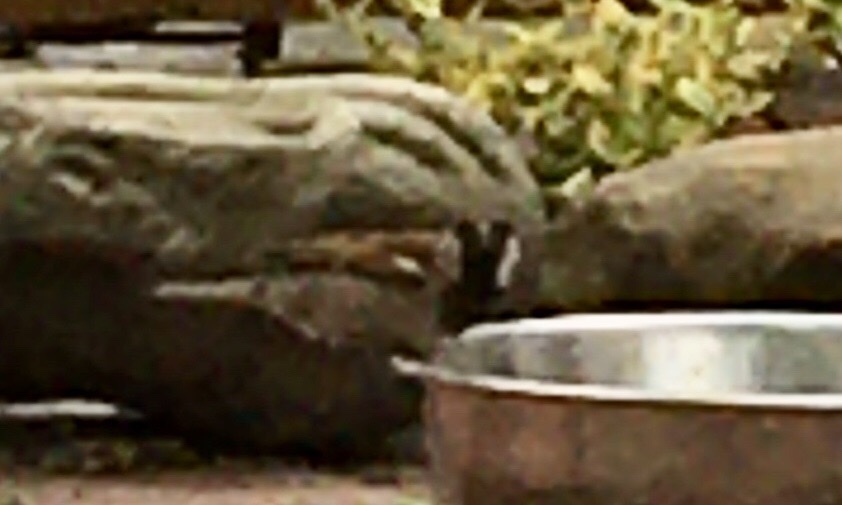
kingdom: Animalia
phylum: Chordata
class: Aves
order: Passeriformes
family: Passeridae
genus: Passer
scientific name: Passer domesticus
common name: House sparrow
